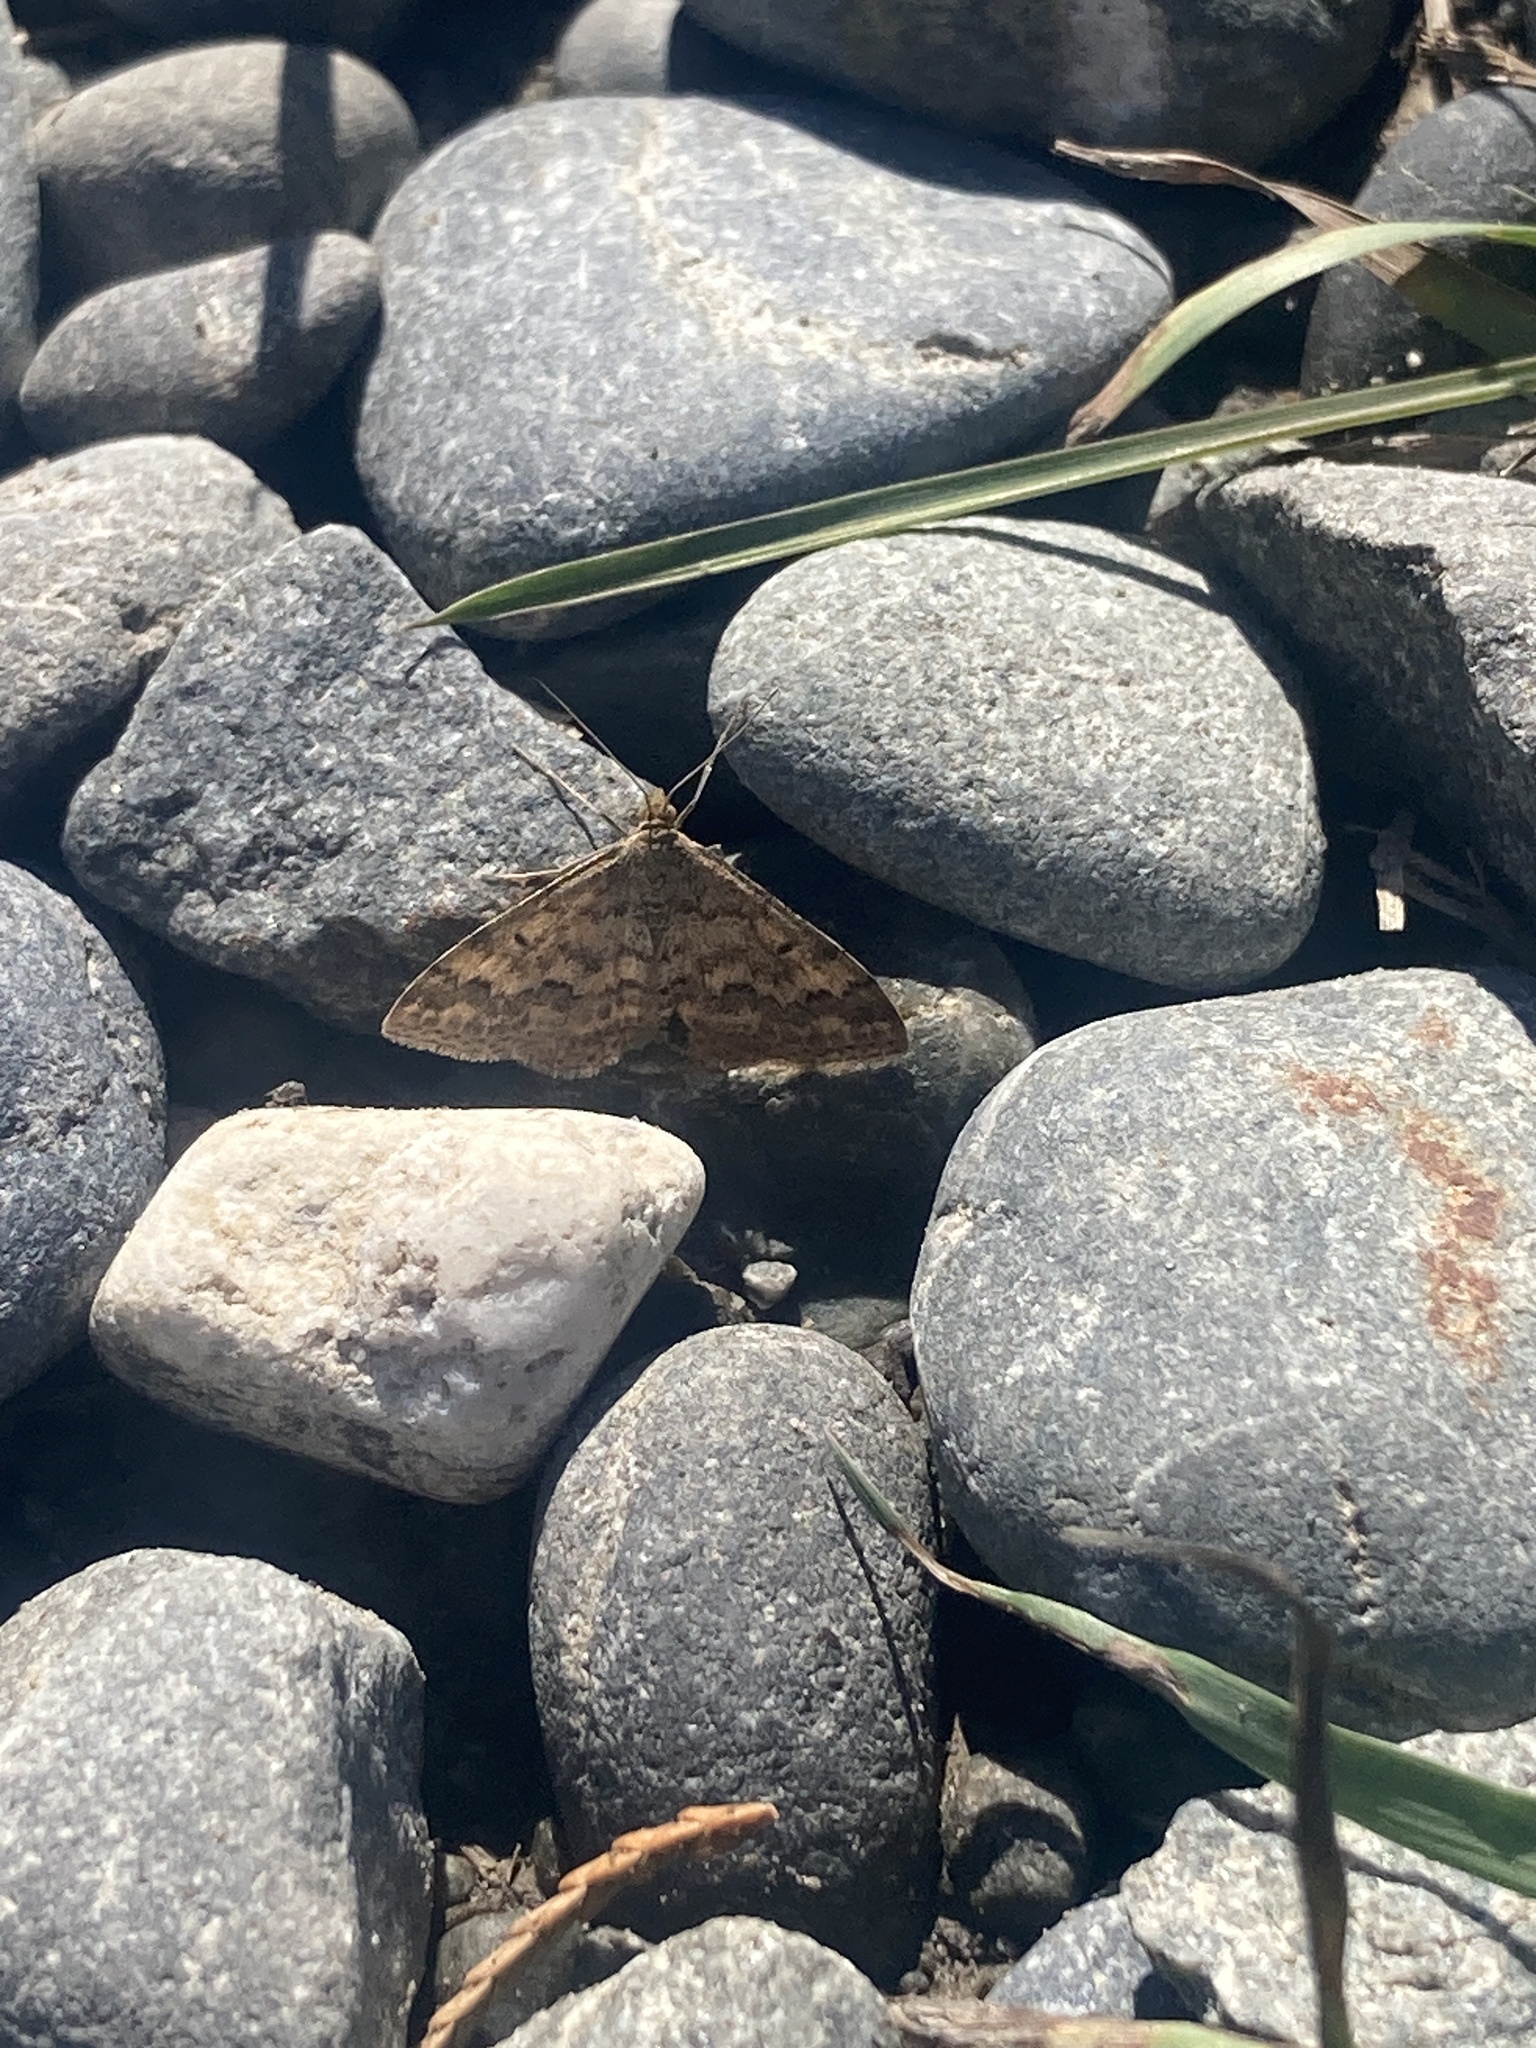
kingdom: Animalia
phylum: Arthropoda
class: Insecta
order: Lepidoptera
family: Geometridae
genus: Scopula
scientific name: Scopula rubraria
